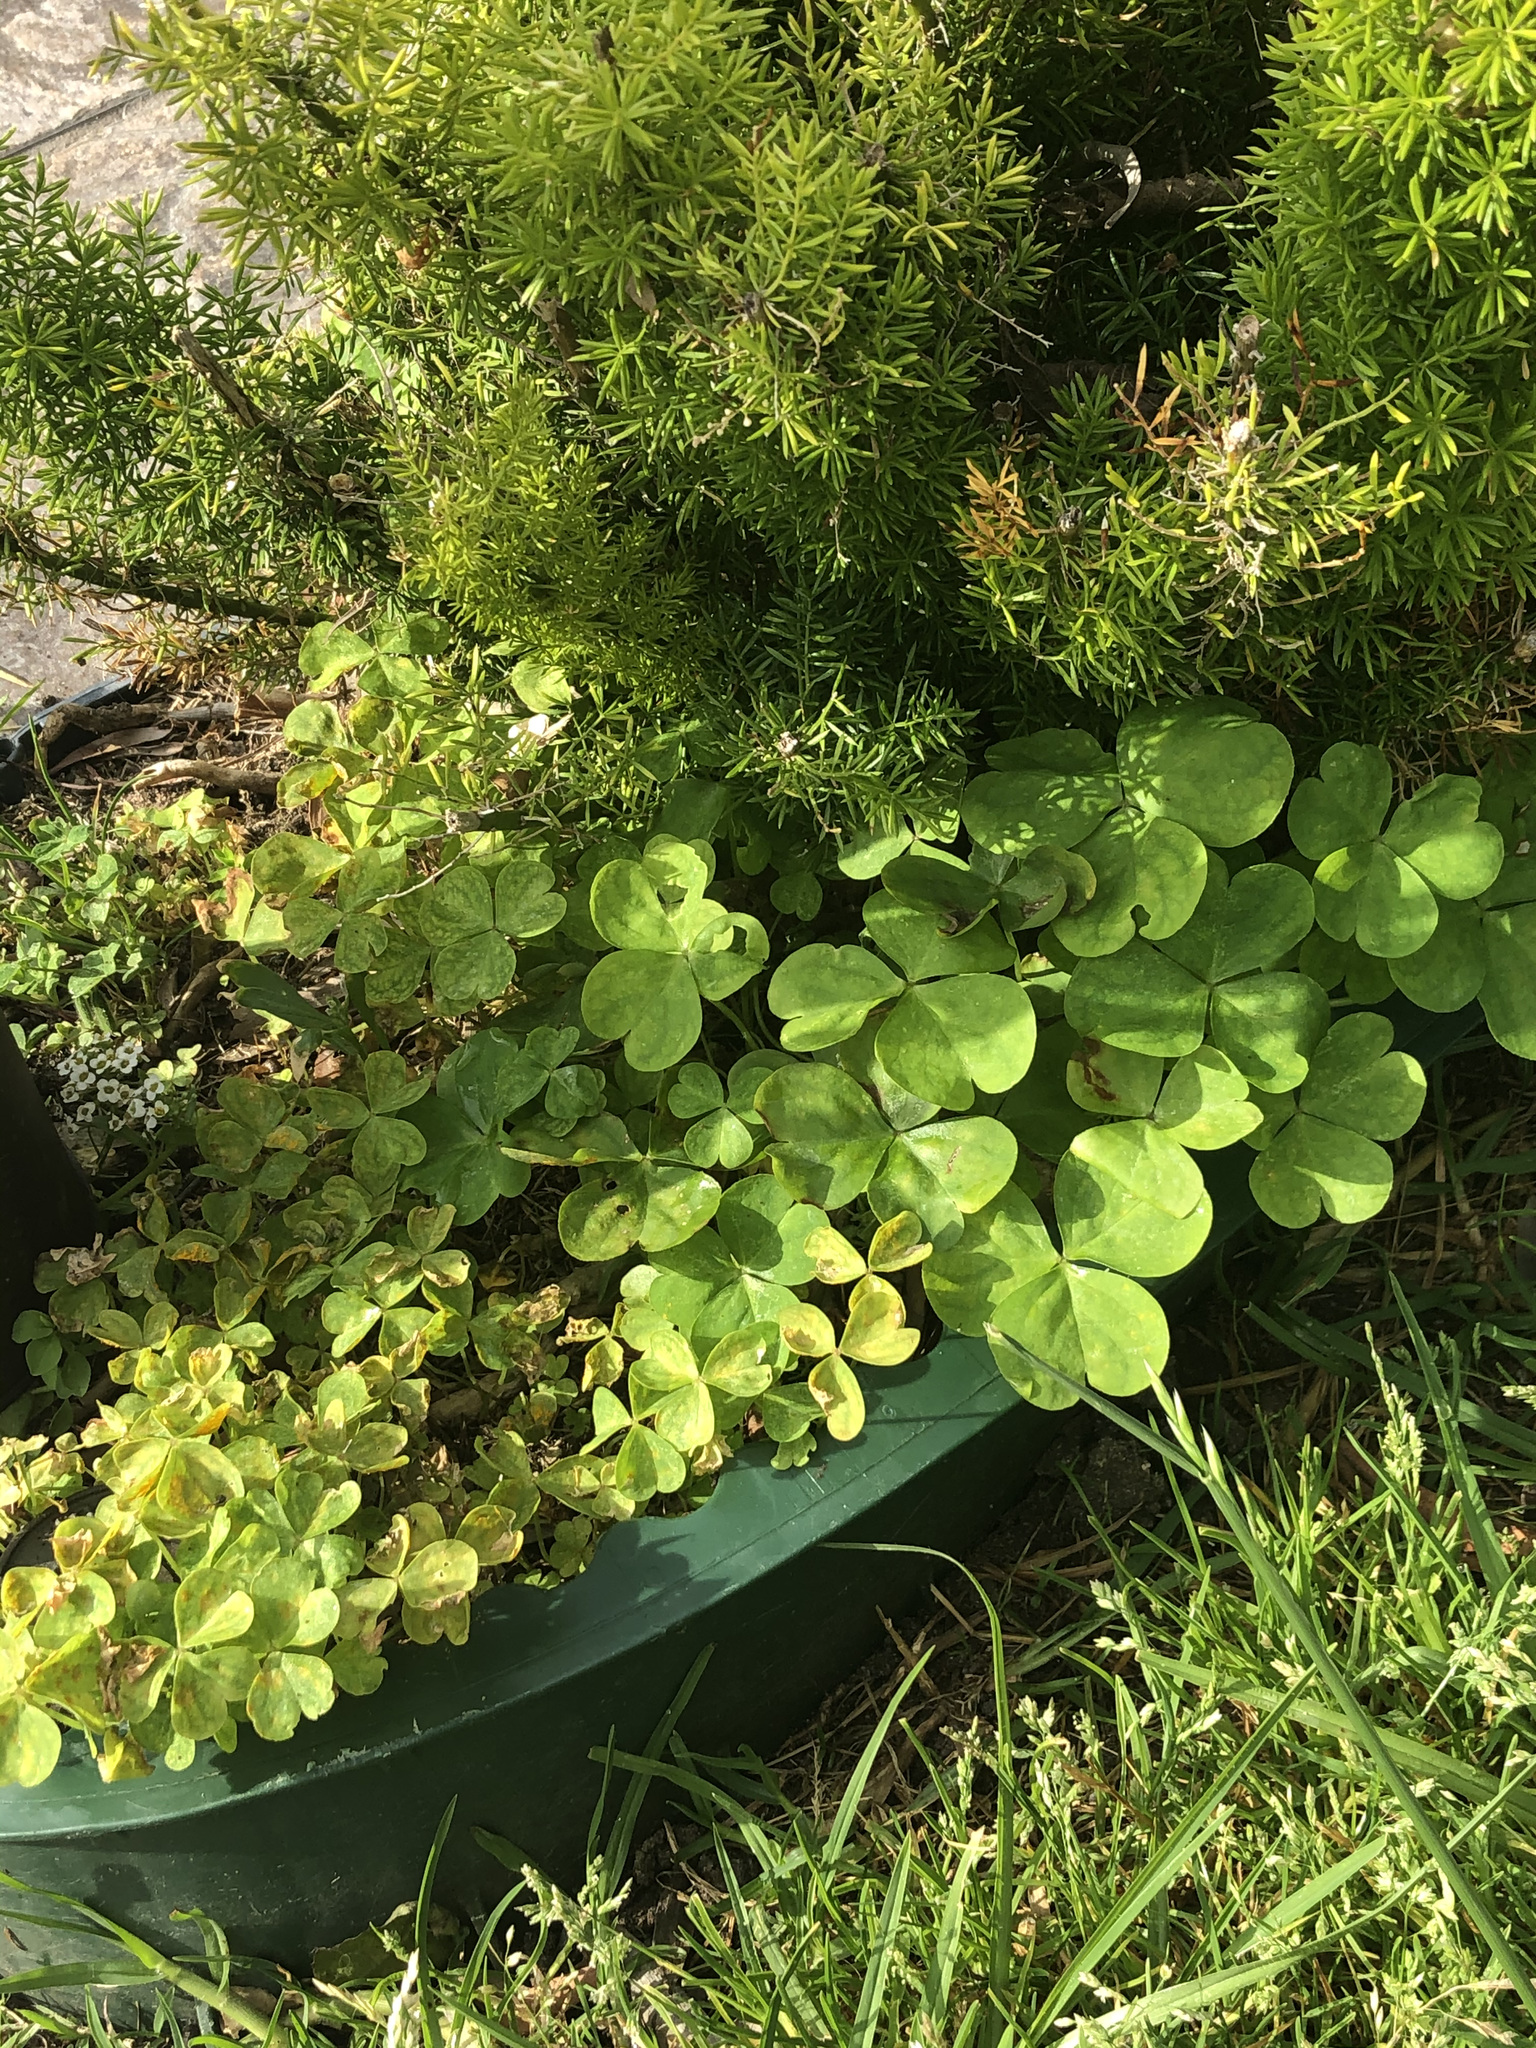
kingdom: Plantae
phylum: Tracheophyta
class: Magnoliopsida
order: Oxalidales
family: Oxalidaceae
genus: Oxalis
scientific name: Oxalis debilis
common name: Large-flowered pink-sorrel
